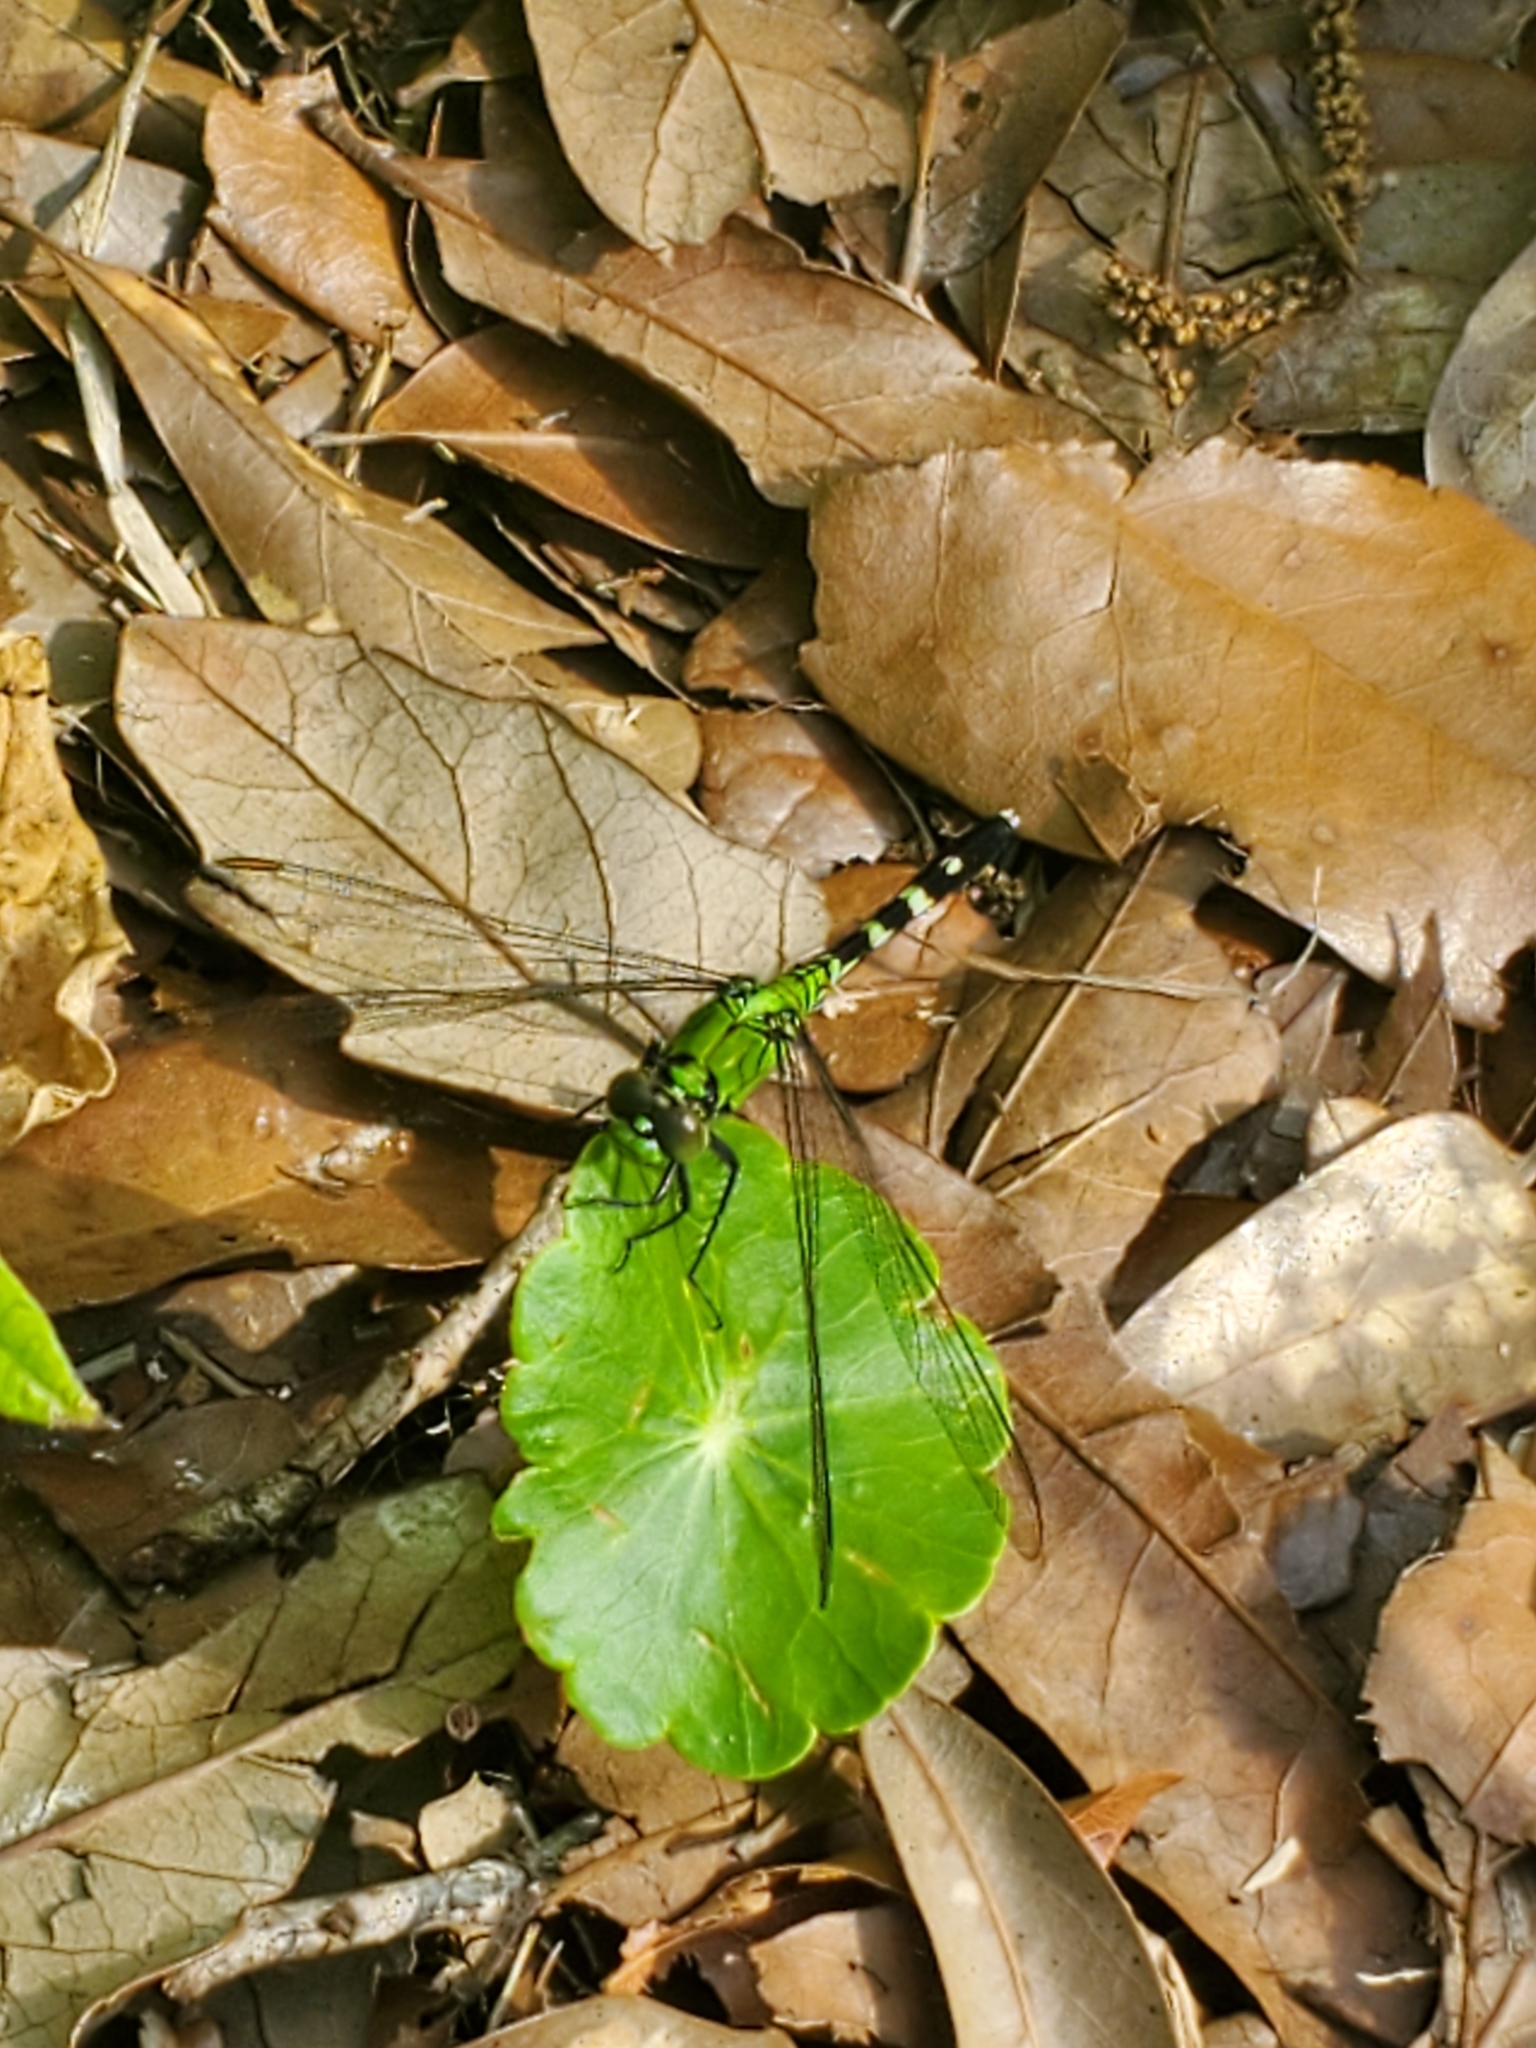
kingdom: Animalia
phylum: Arthropoda
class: Insecta
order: Odonata
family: Libellulidae
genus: Erythemis
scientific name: Erythemis simplicicollis
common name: Eastern pondhawk
